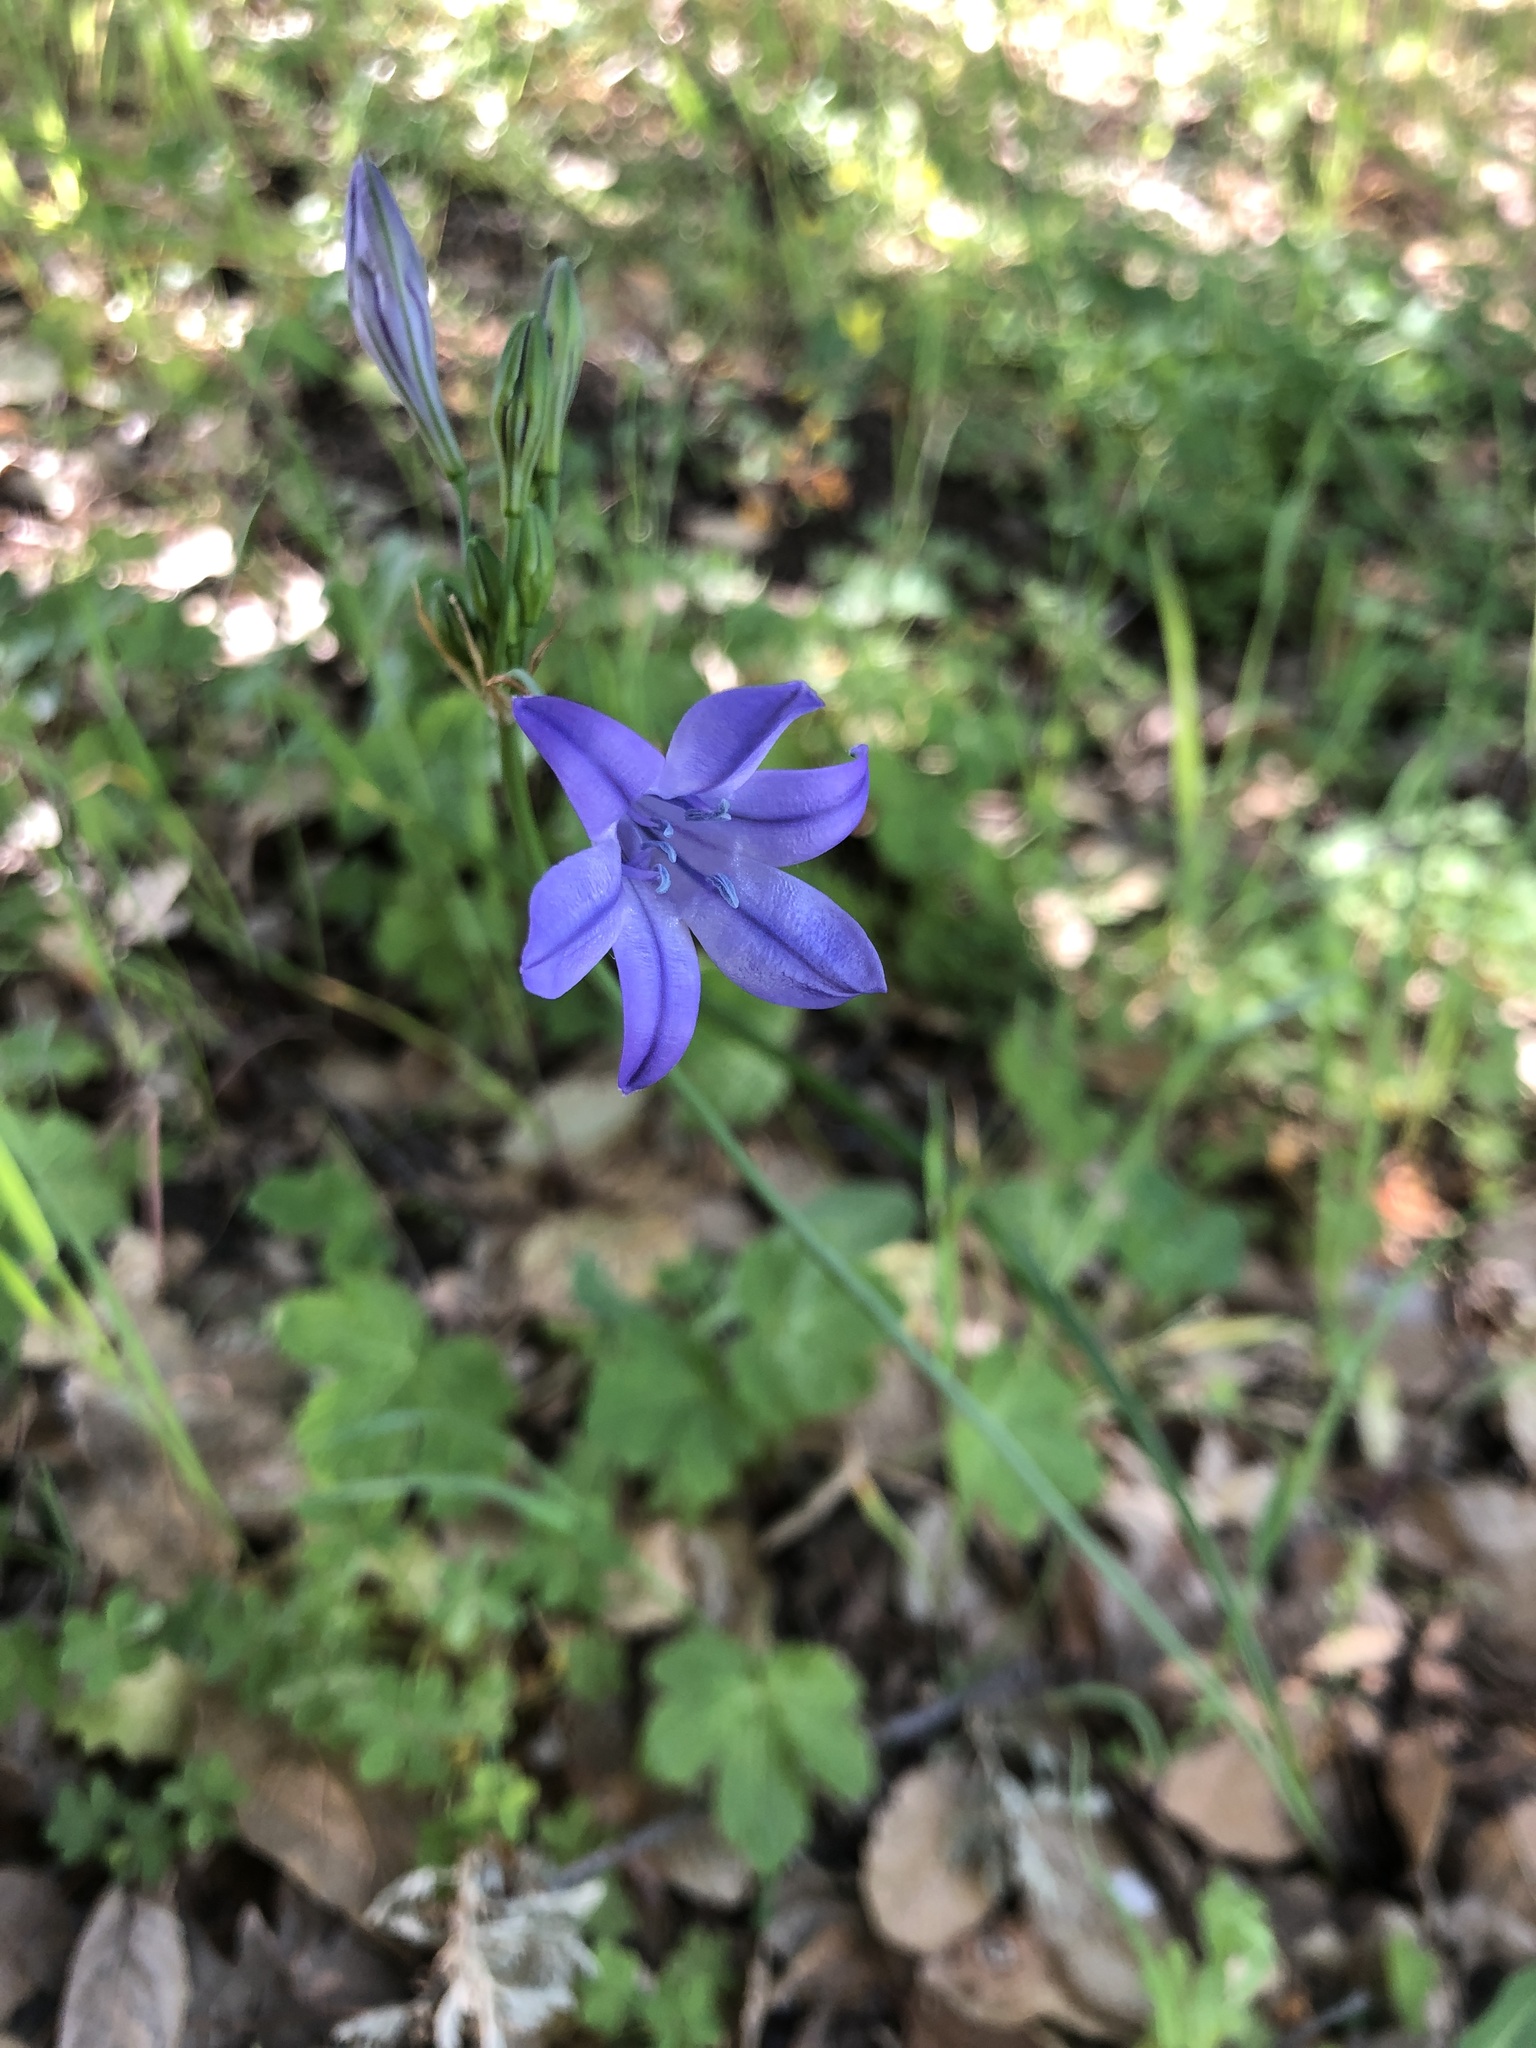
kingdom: Plantae
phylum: Tracheophyta
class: Liliopsida
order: Asparagales
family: Asparagaceae
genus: Triteleia
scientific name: Triteleia laxa
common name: Triplet-lily
